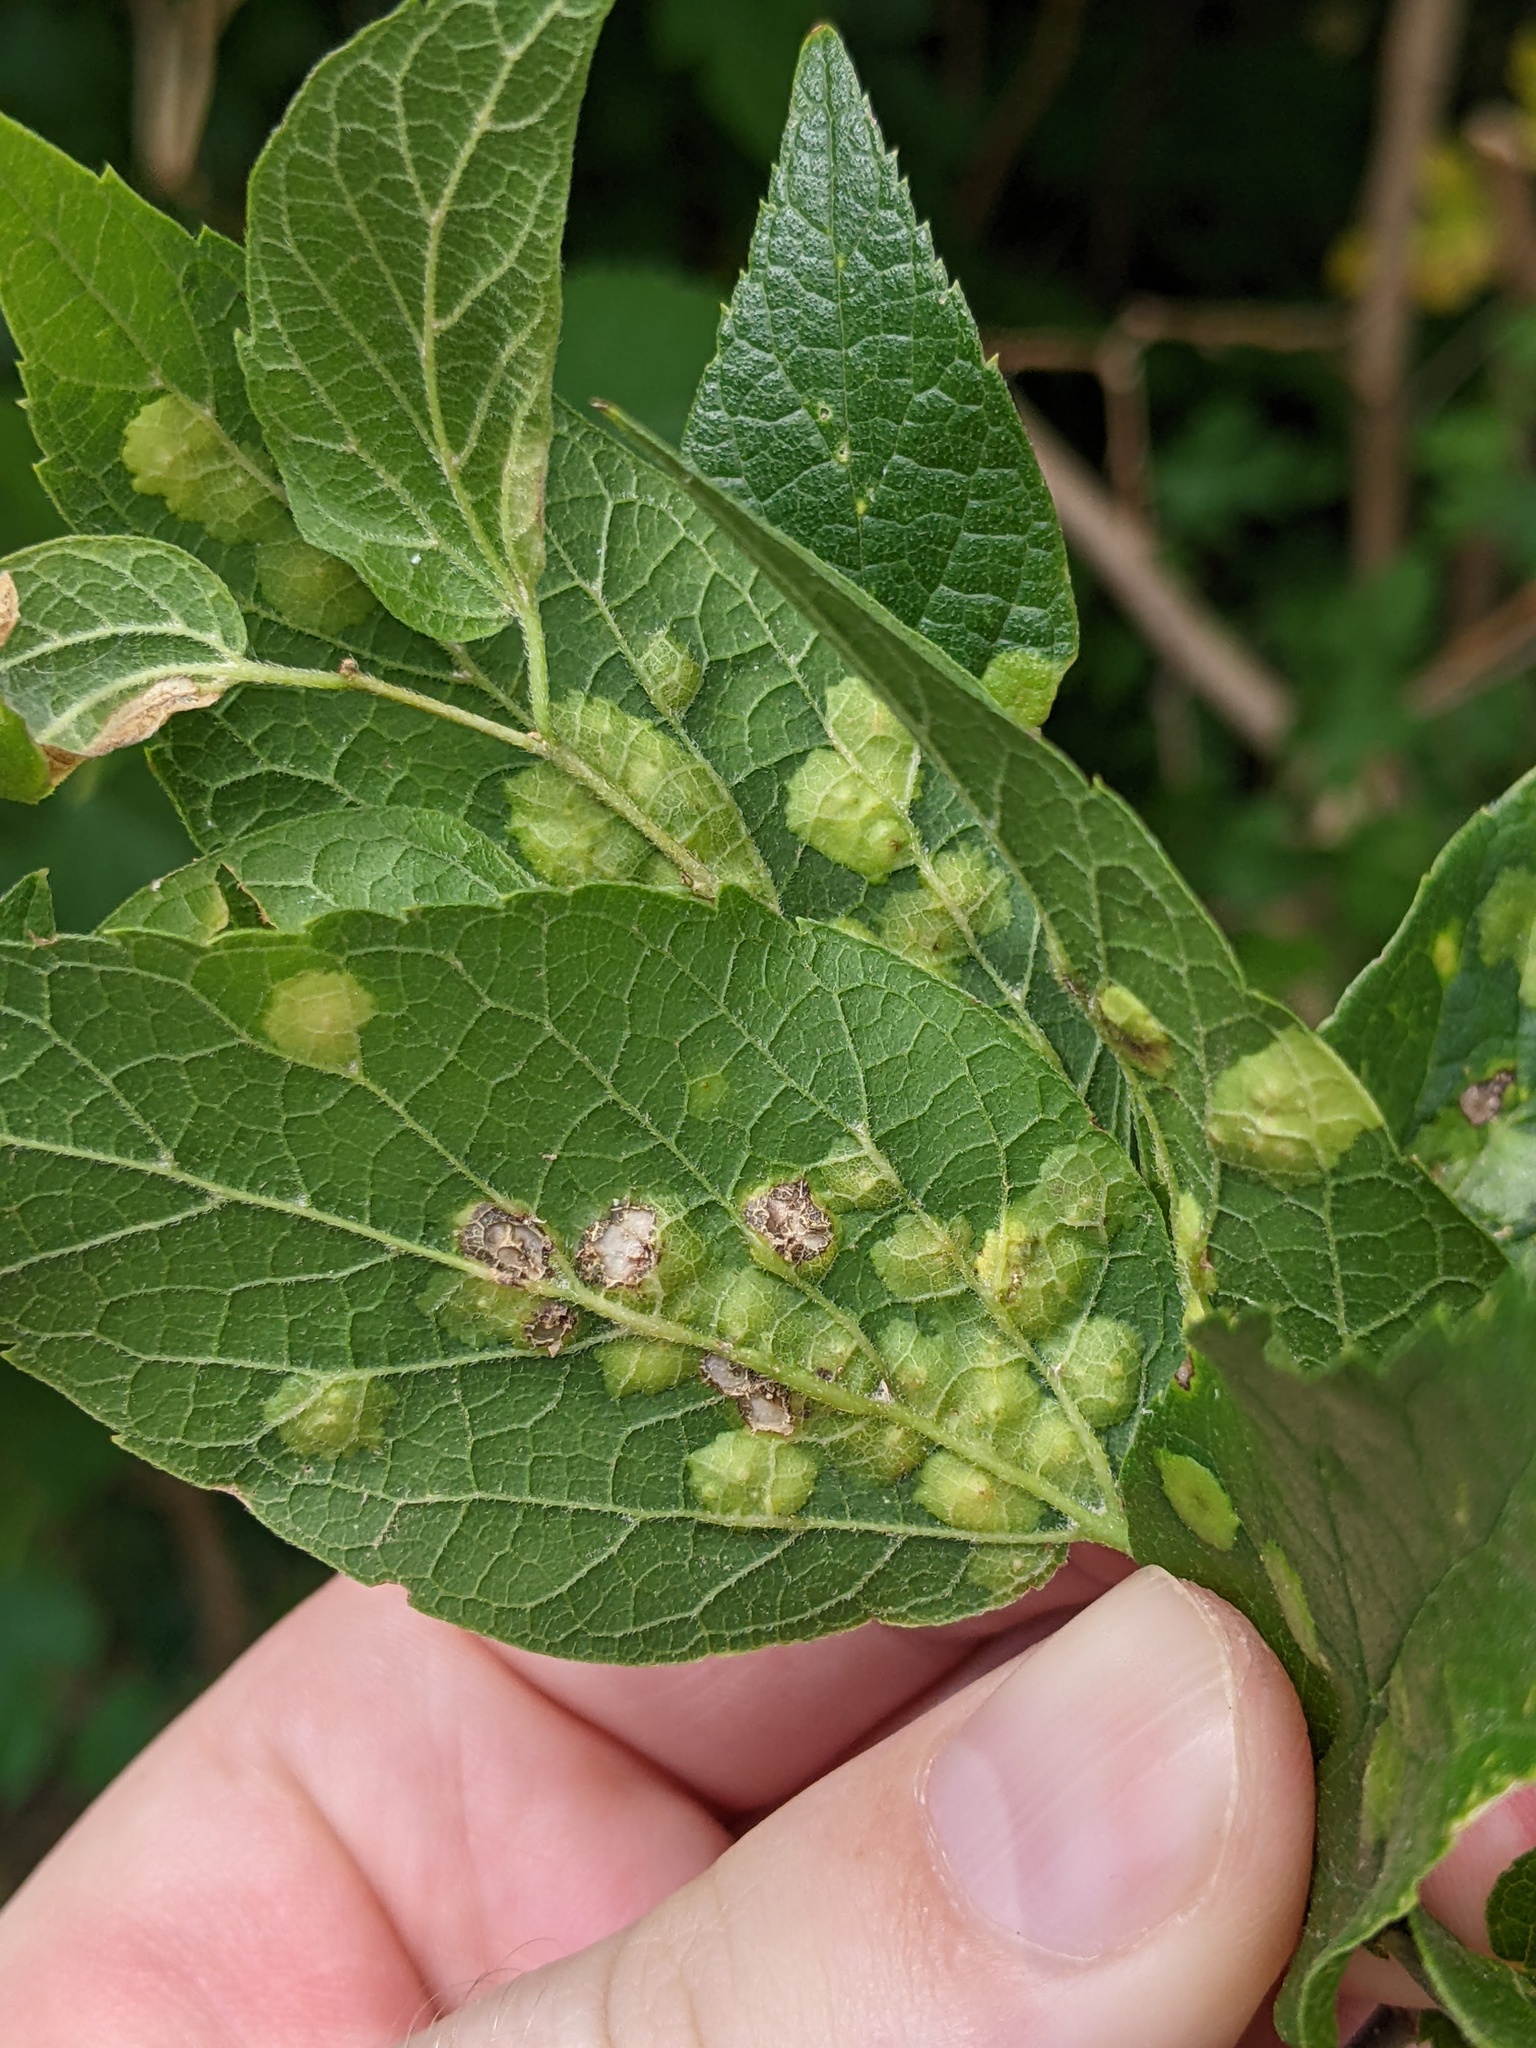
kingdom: Animalia
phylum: Arthropoda
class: Insecta
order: Hemiptera
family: Aphalaridae
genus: Pachypsylla
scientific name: Pachypsylla celtidisvesicula
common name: Hackberry blister gall psyllid
